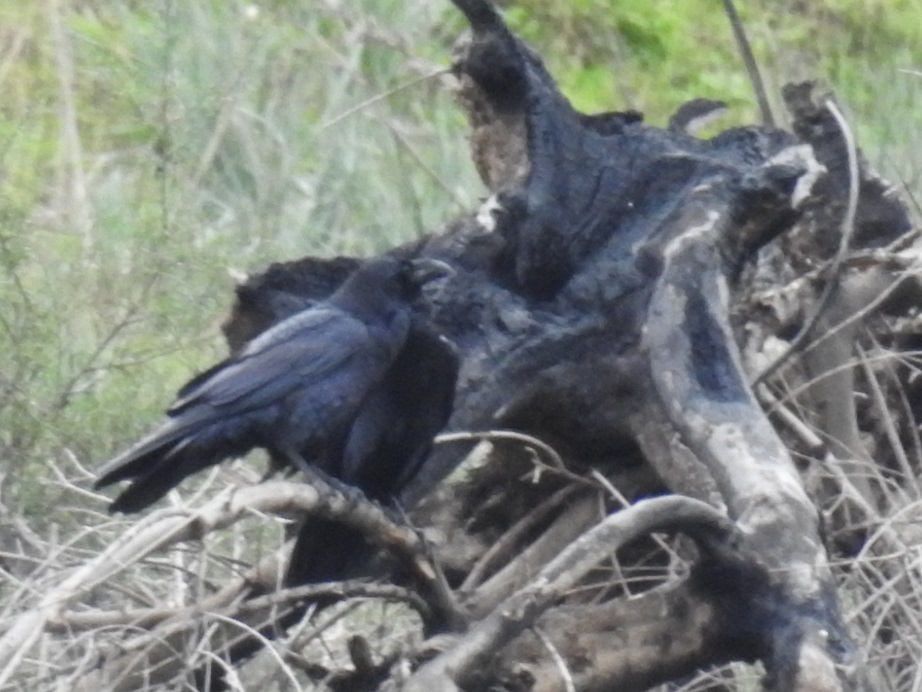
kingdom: Animalia
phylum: Chordata
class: Aves
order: Passeriformes
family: Corvidae
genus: Corvus
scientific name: Corvus corax
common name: Common raven
